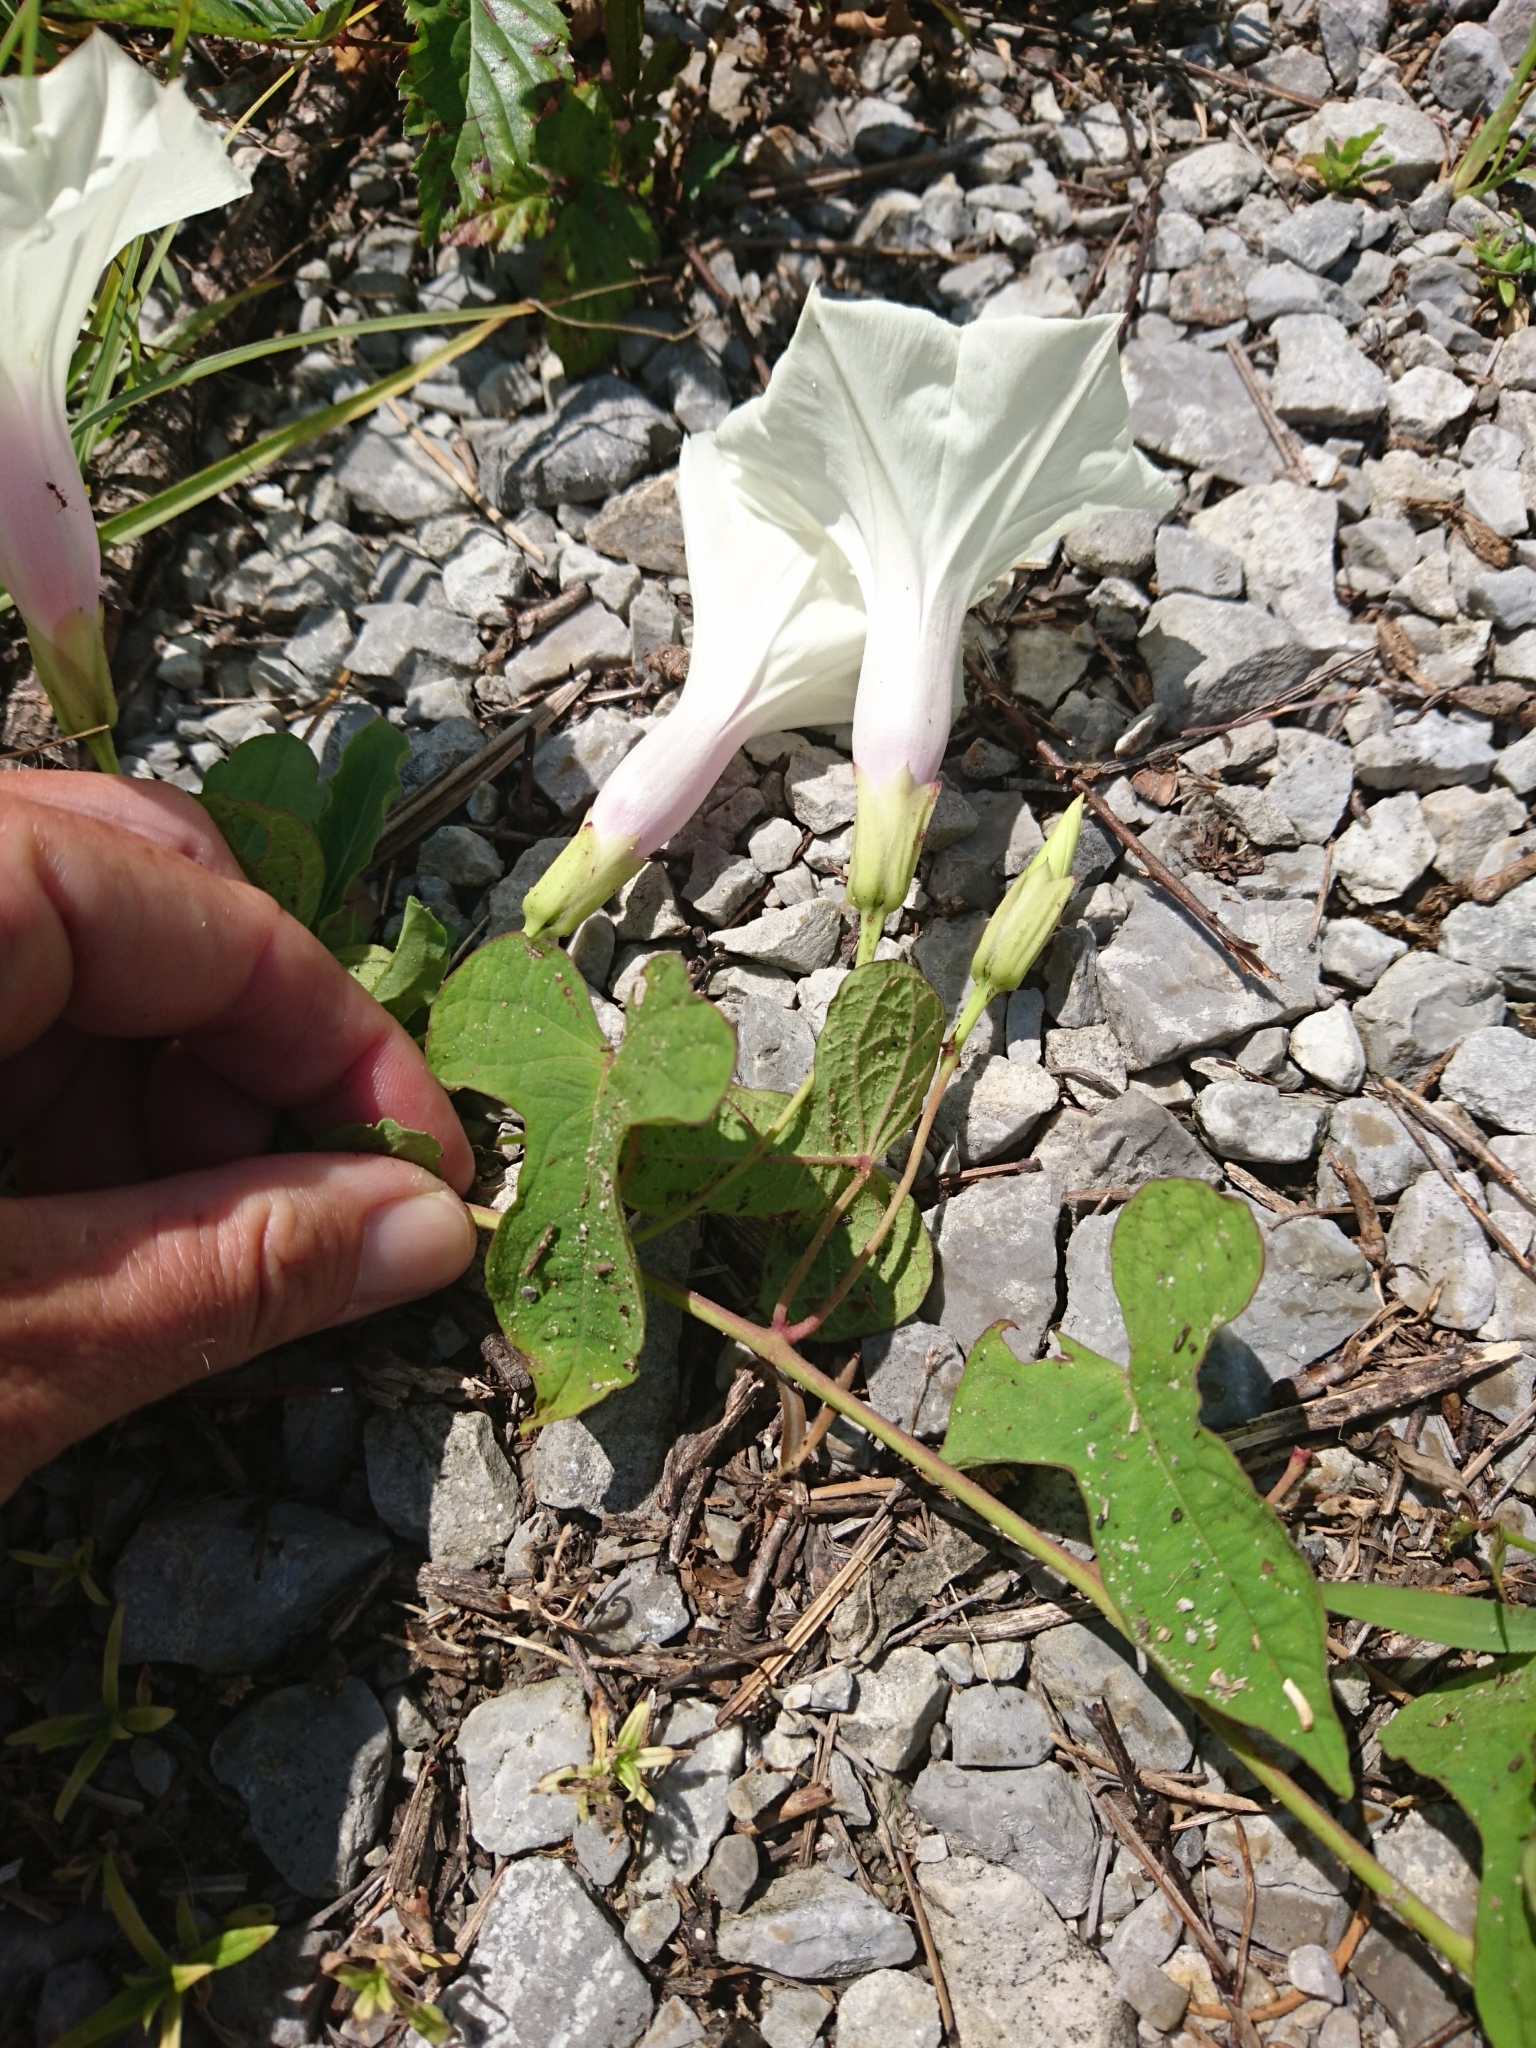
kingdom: Plantae
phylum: Tracheophyta
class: Magnoliopsida
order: Solanales
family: Convolvulaceae
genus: Ipomoea
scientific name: Ipomoea pandurata
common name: Man-of-the-earth
